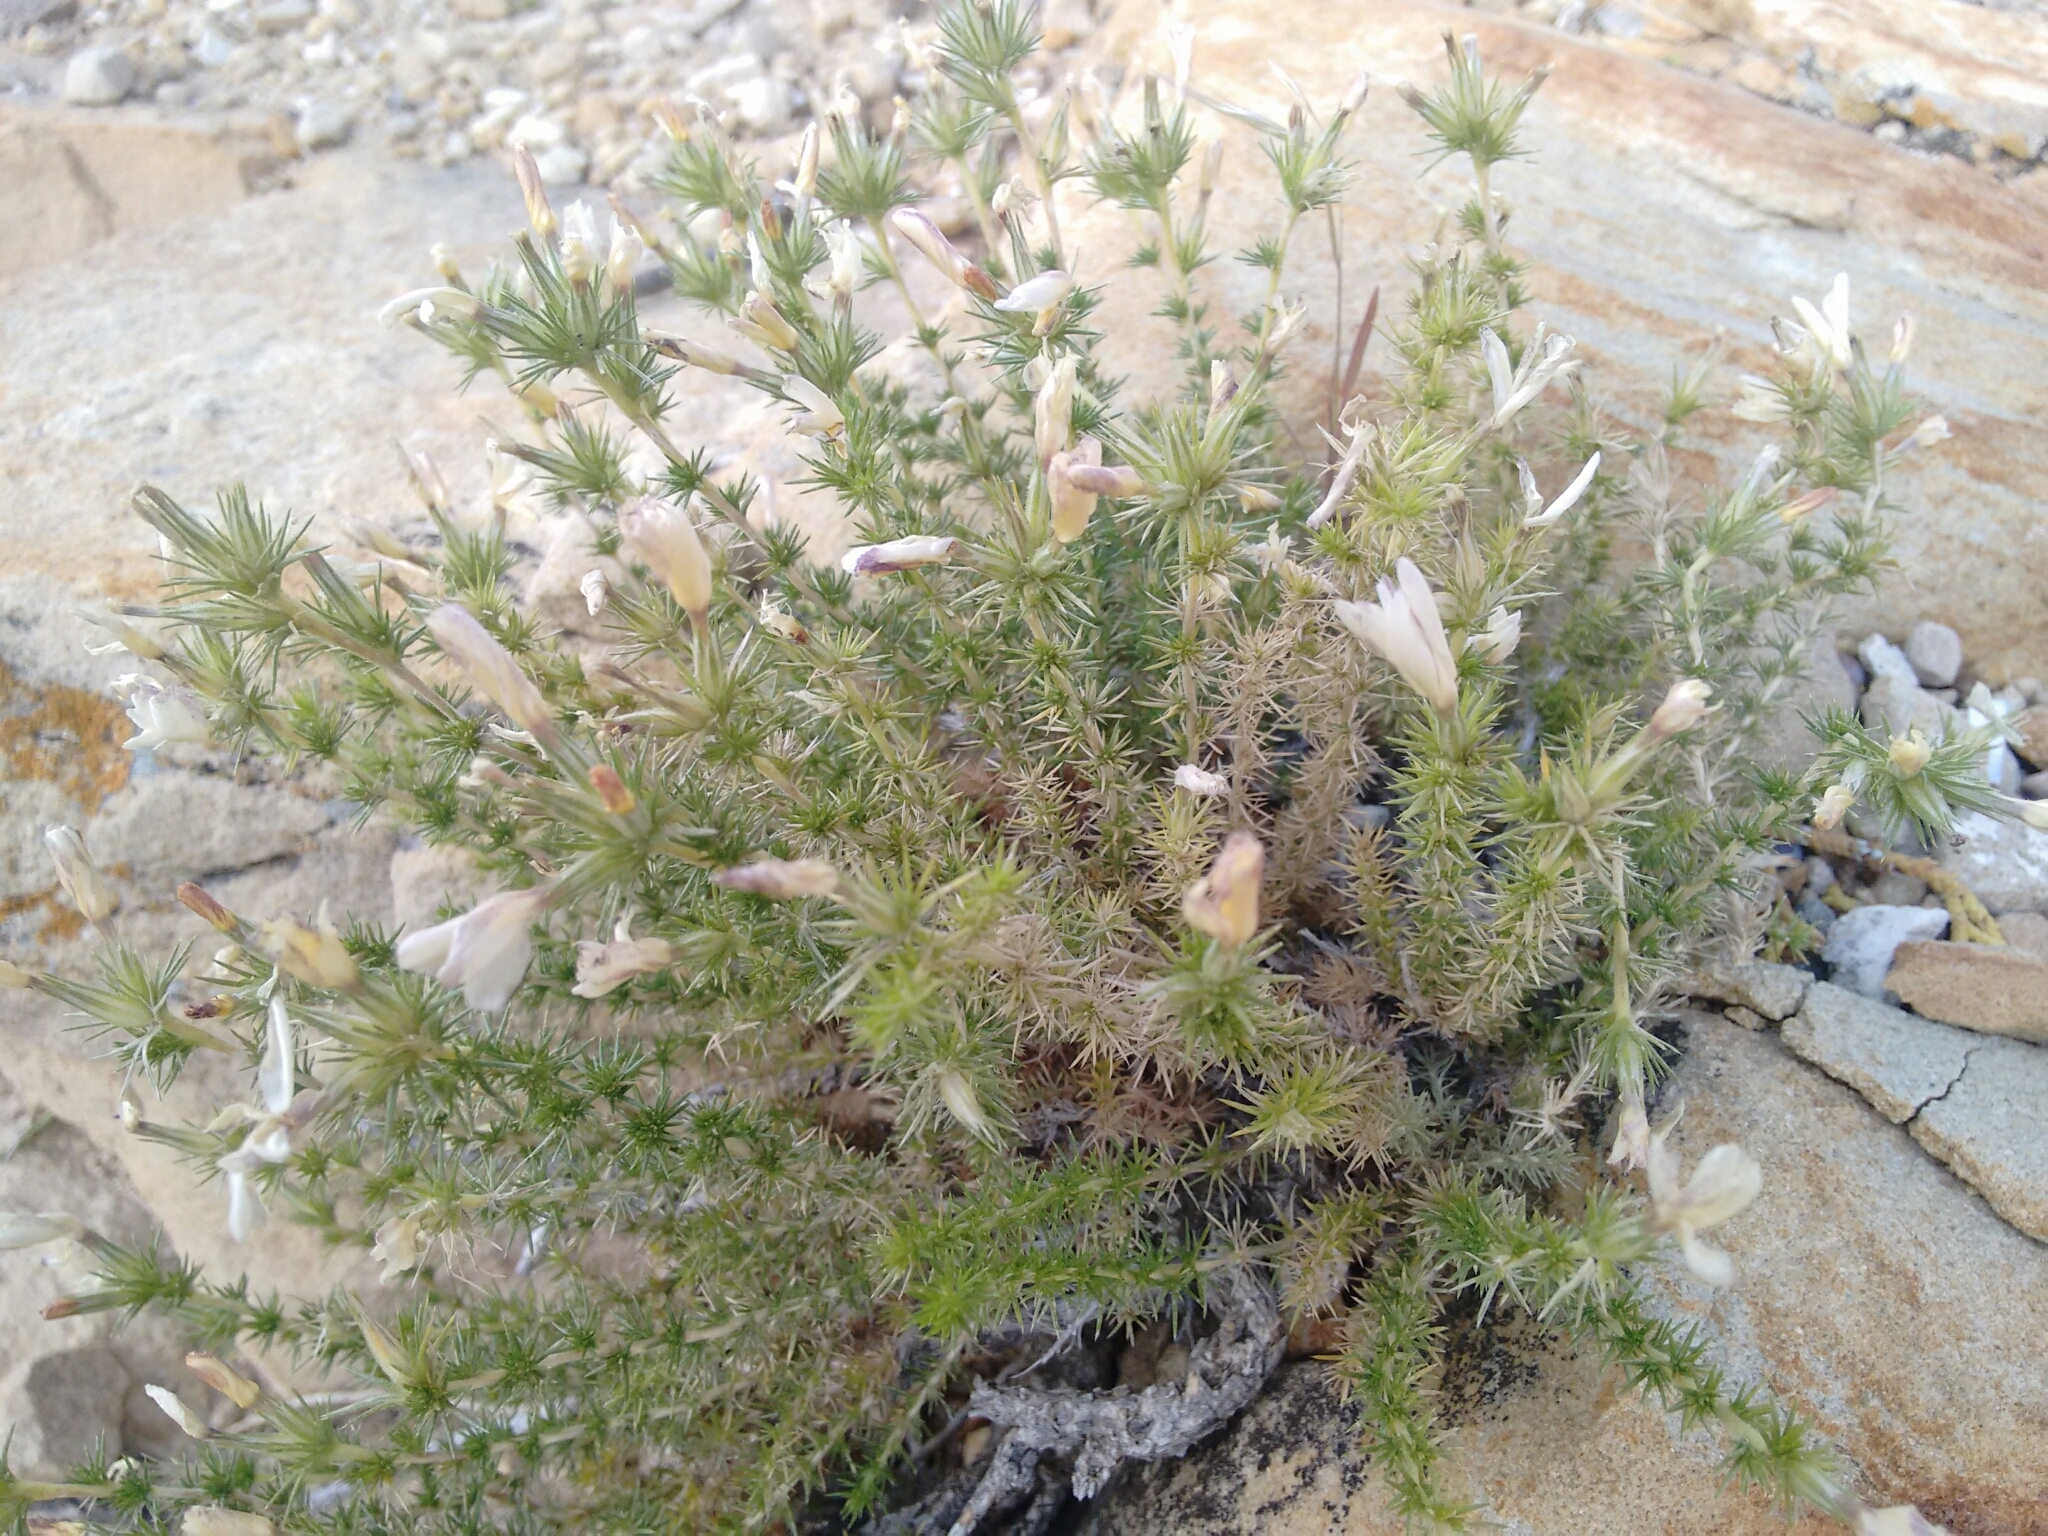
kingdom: Plantae
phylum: Tracheophyta
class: Magnoliopsida
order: Ericales
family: Polemoniaceae
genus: Linanthus
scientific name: Linanthus pungens
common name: Granite prickly phlox
